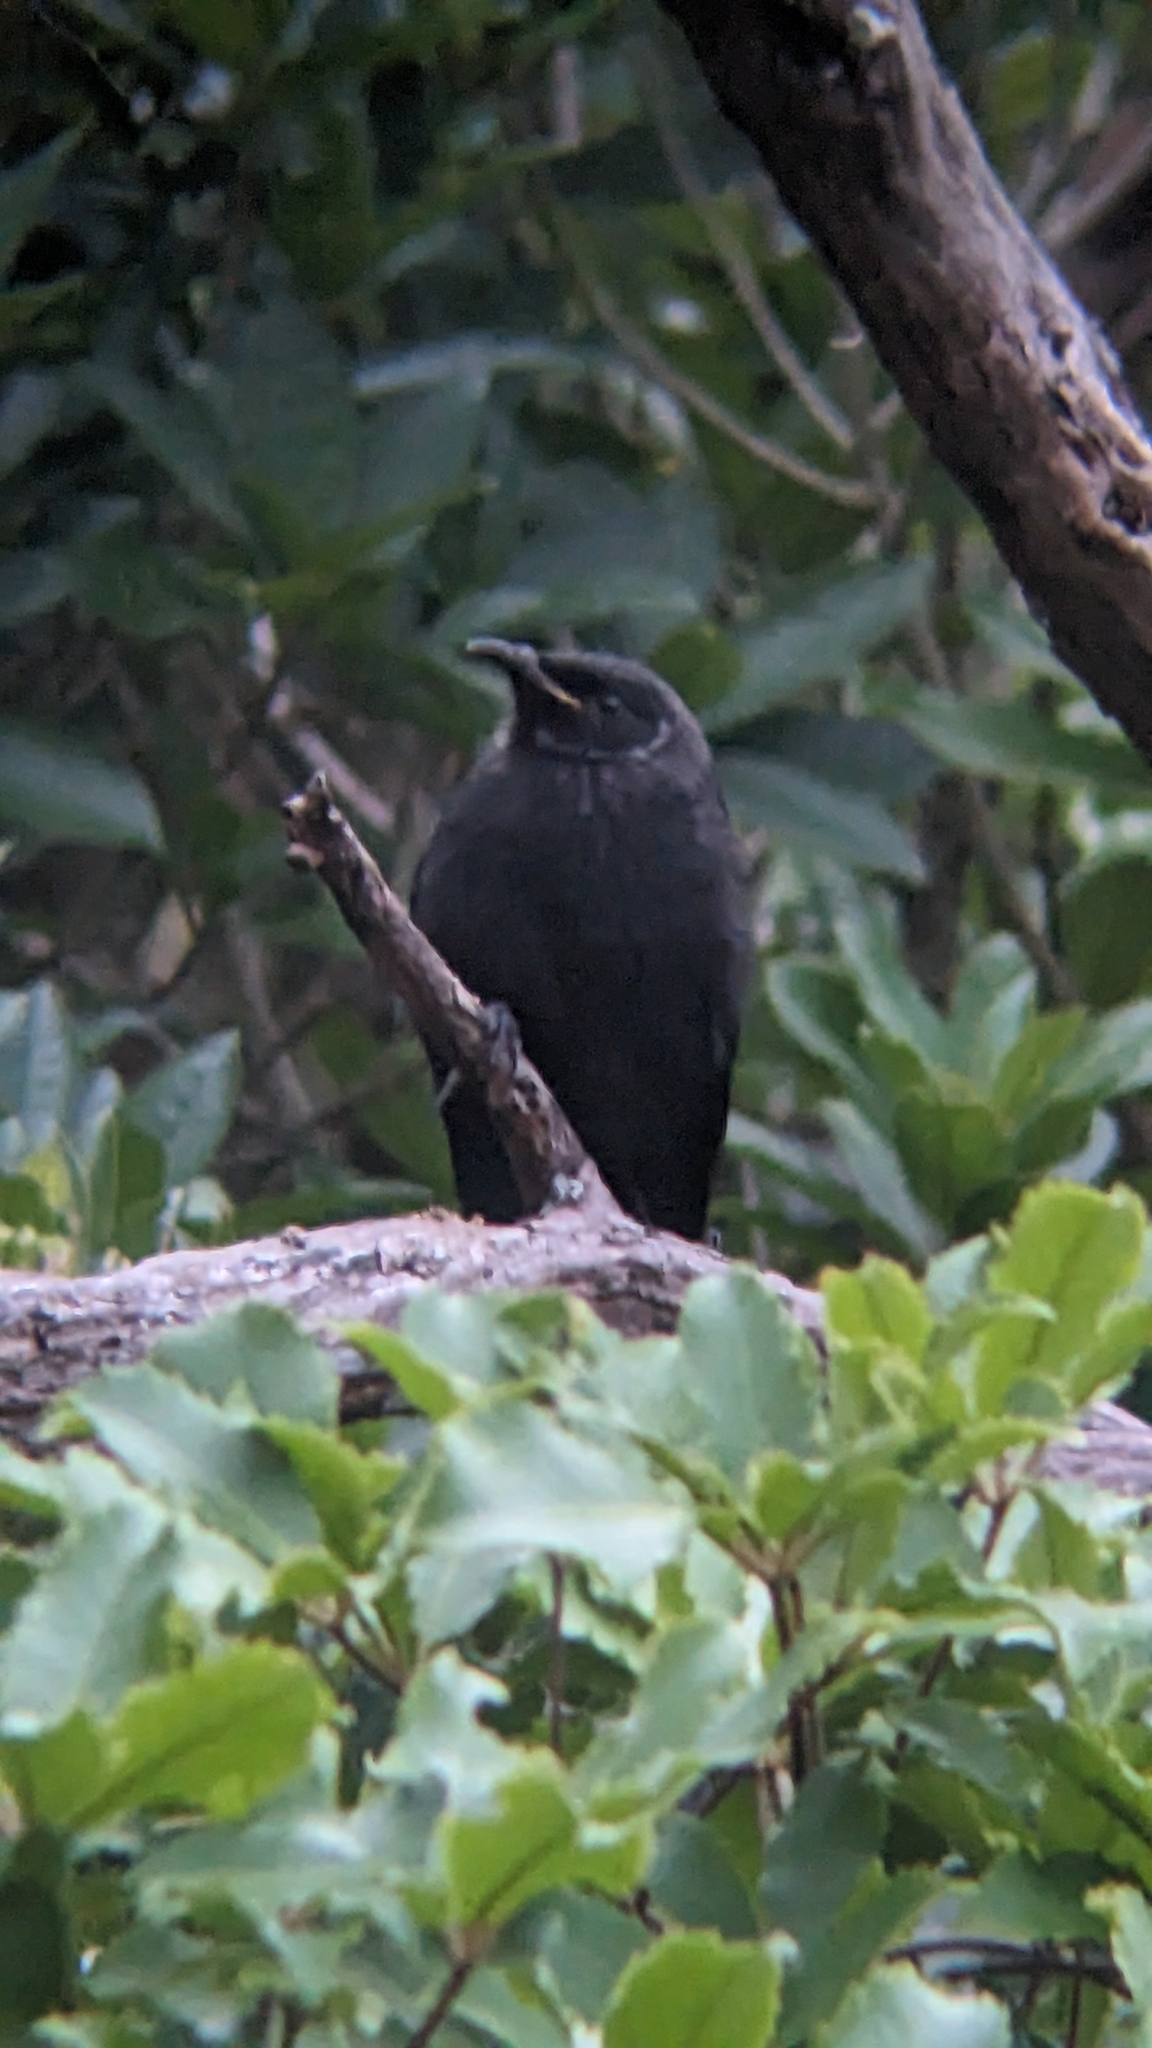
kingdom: Animalia
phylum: Chordata
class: Aves
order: Passeriformes
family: Meliphagidae
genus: Prosthemadera
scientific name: Prosthemadera novaeseelandiae
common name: Tui
